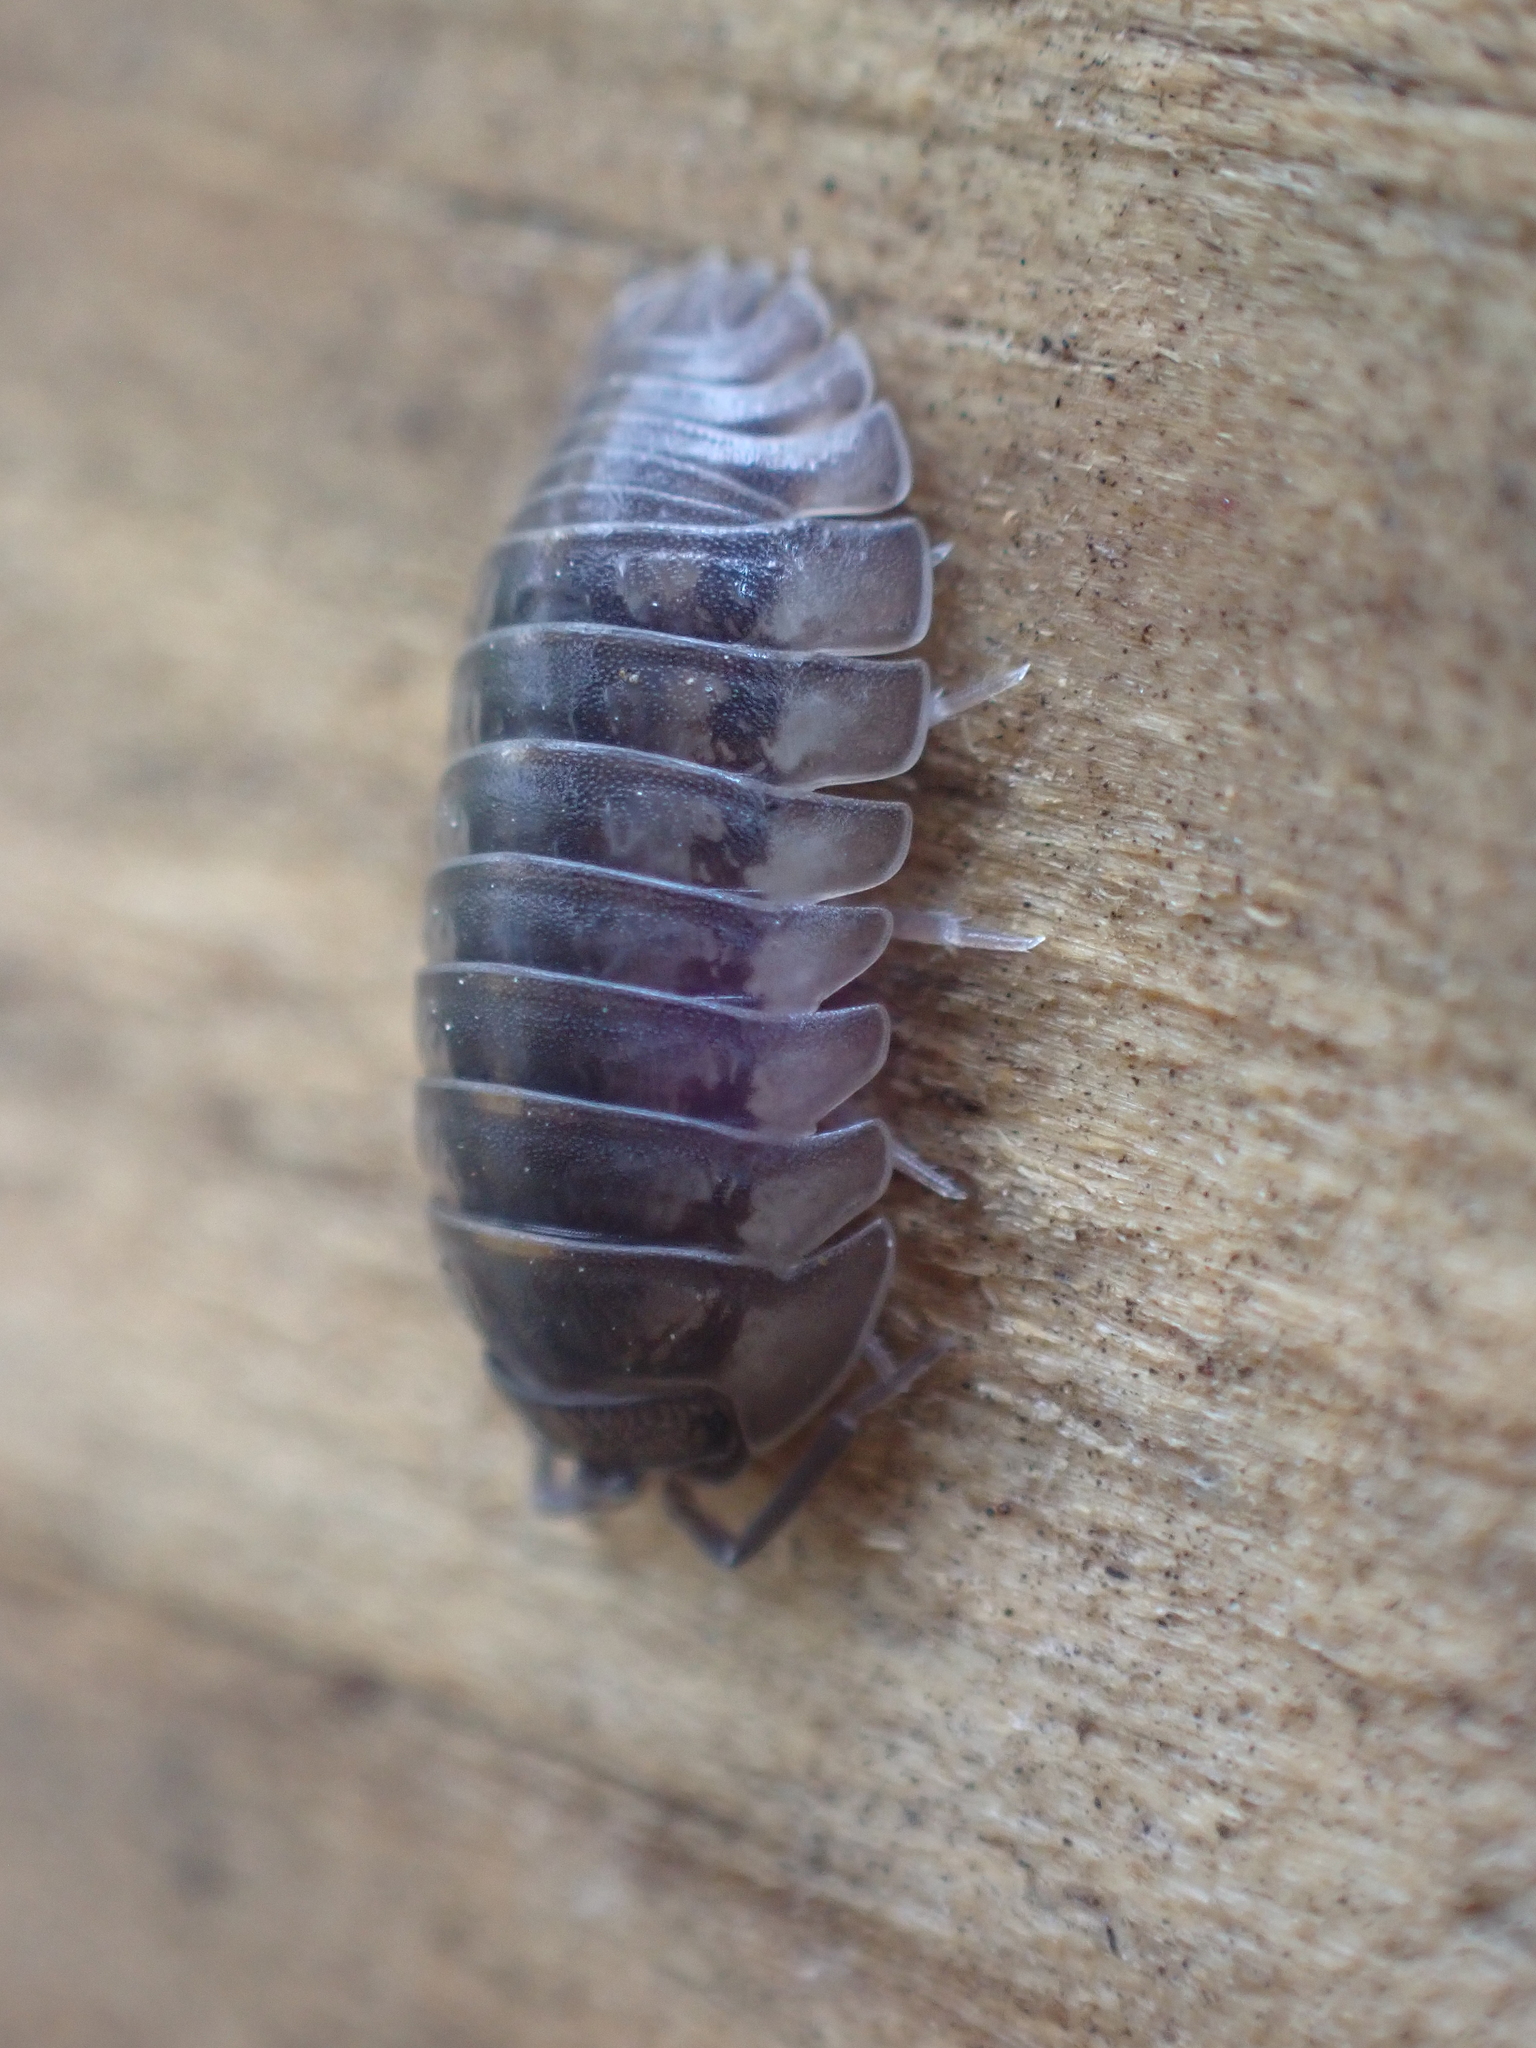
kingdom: Animalia
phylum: Arthropoda
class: Malacostraca
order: Isopoda
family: Armadillidiidae
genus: Armadillidium
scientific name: Armadillidium nasatum
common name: Isopod
